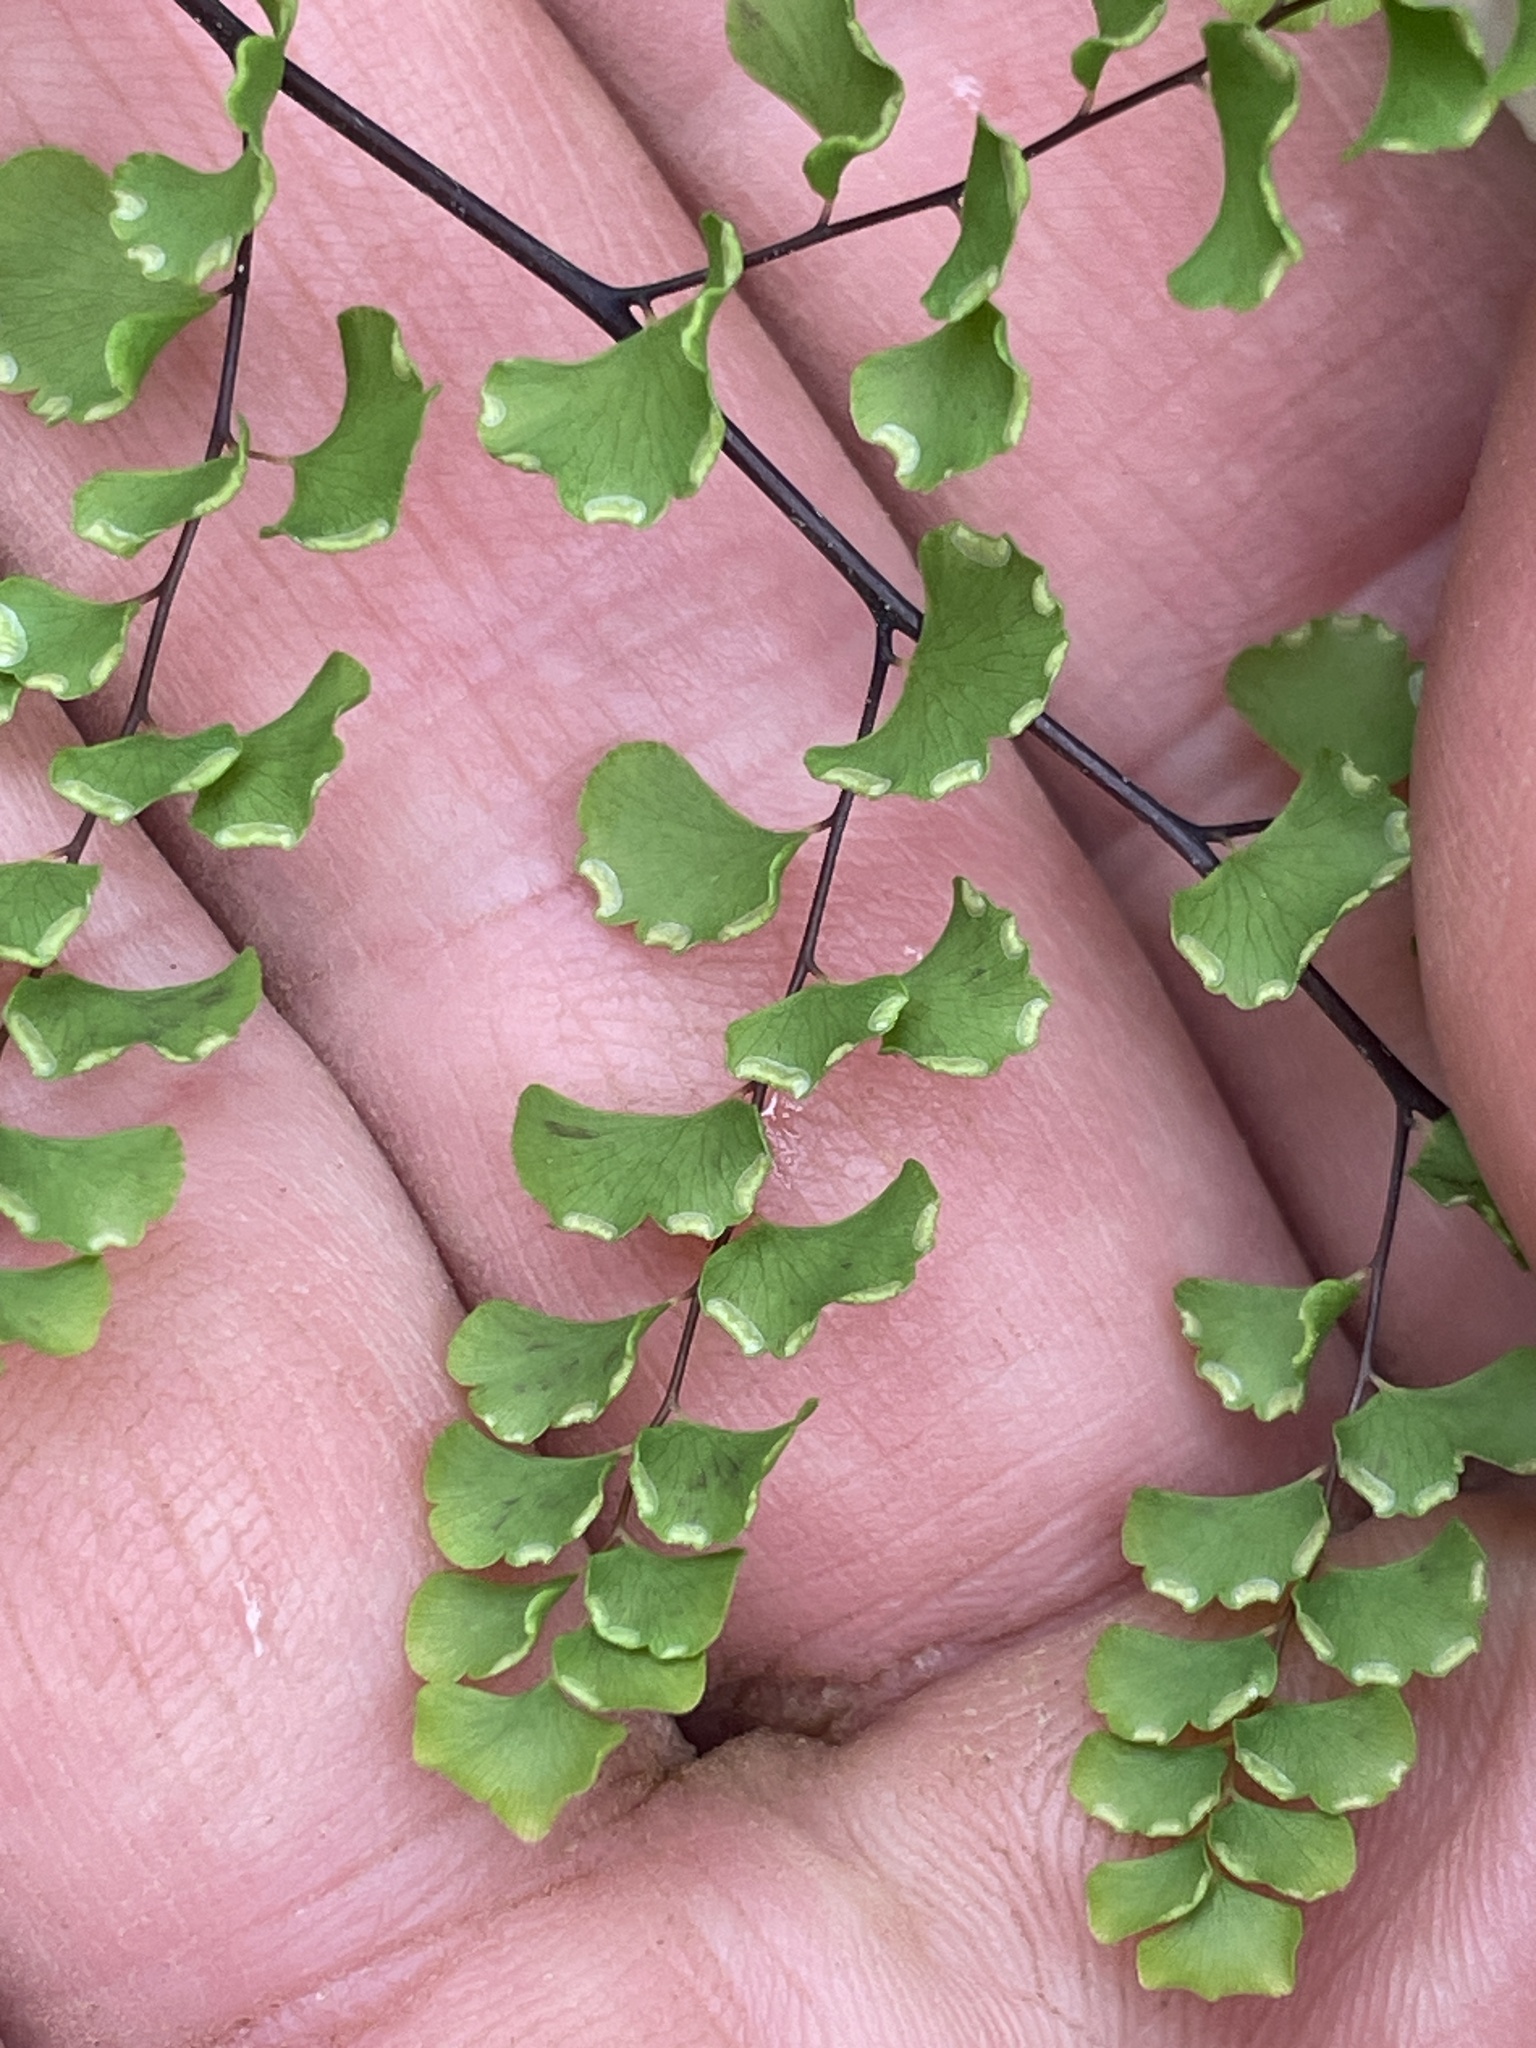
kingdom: Plantae
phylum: Tracheophyta
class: Polypodiopsida
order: Polypodiales
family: Pteridaceae
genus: Adiantum
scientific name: Adiantum henslovianum
